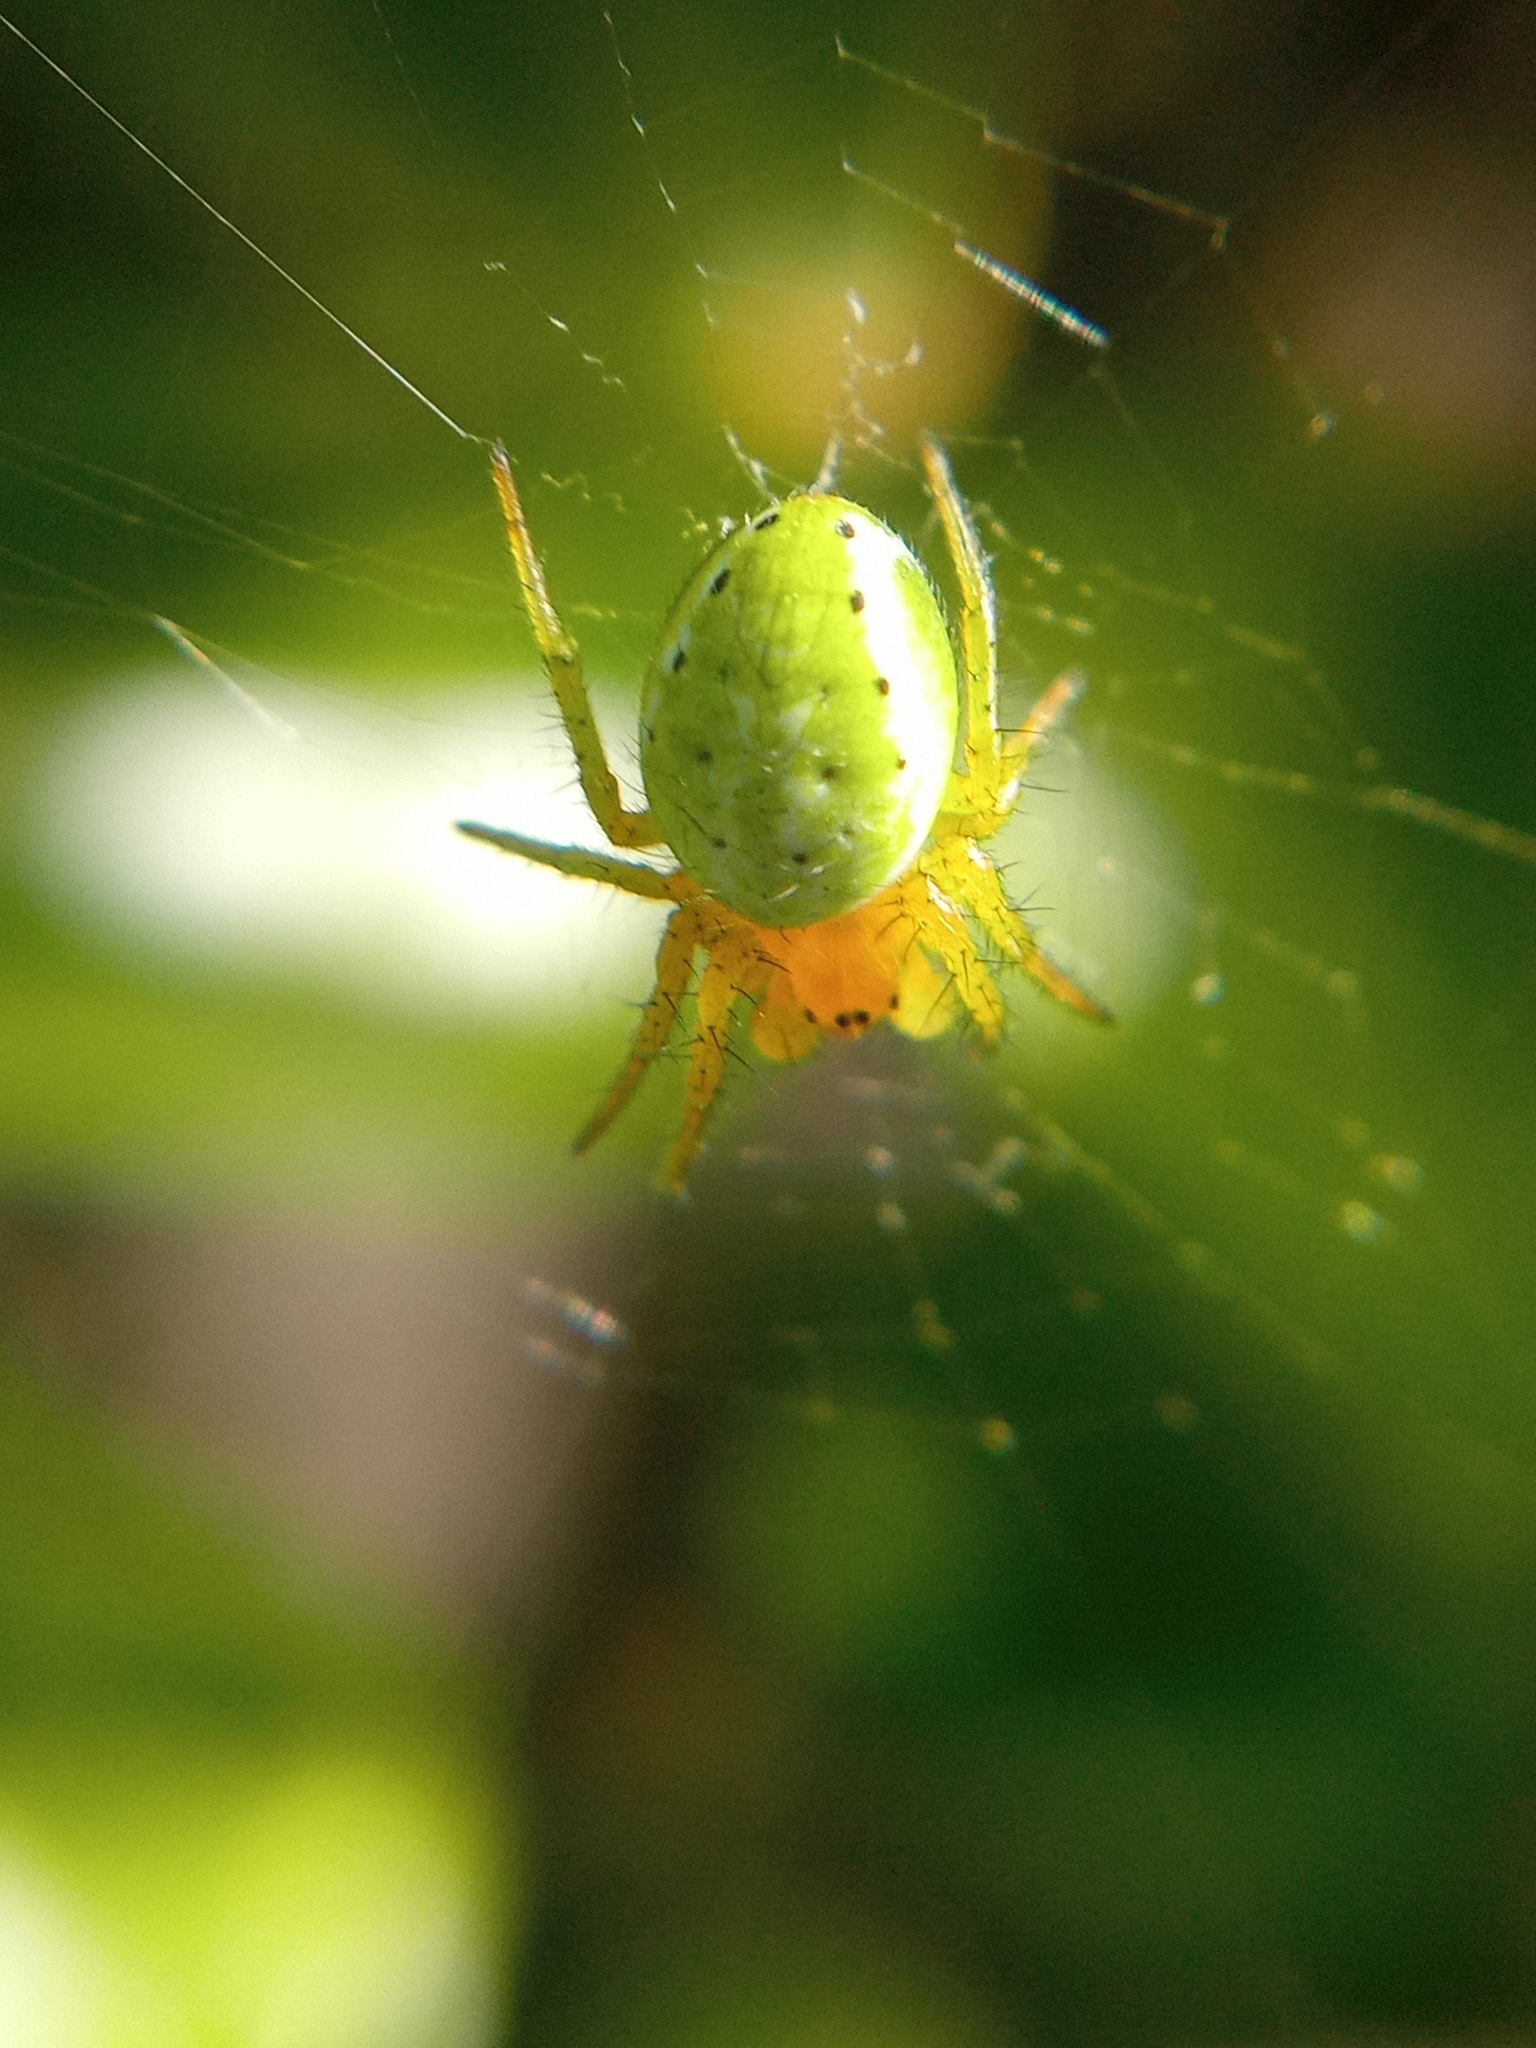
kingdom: Animalia
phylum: Arthropoda
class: Arachnida
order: Araneae
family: Araneidae
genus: Araniella
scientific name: Araniella
